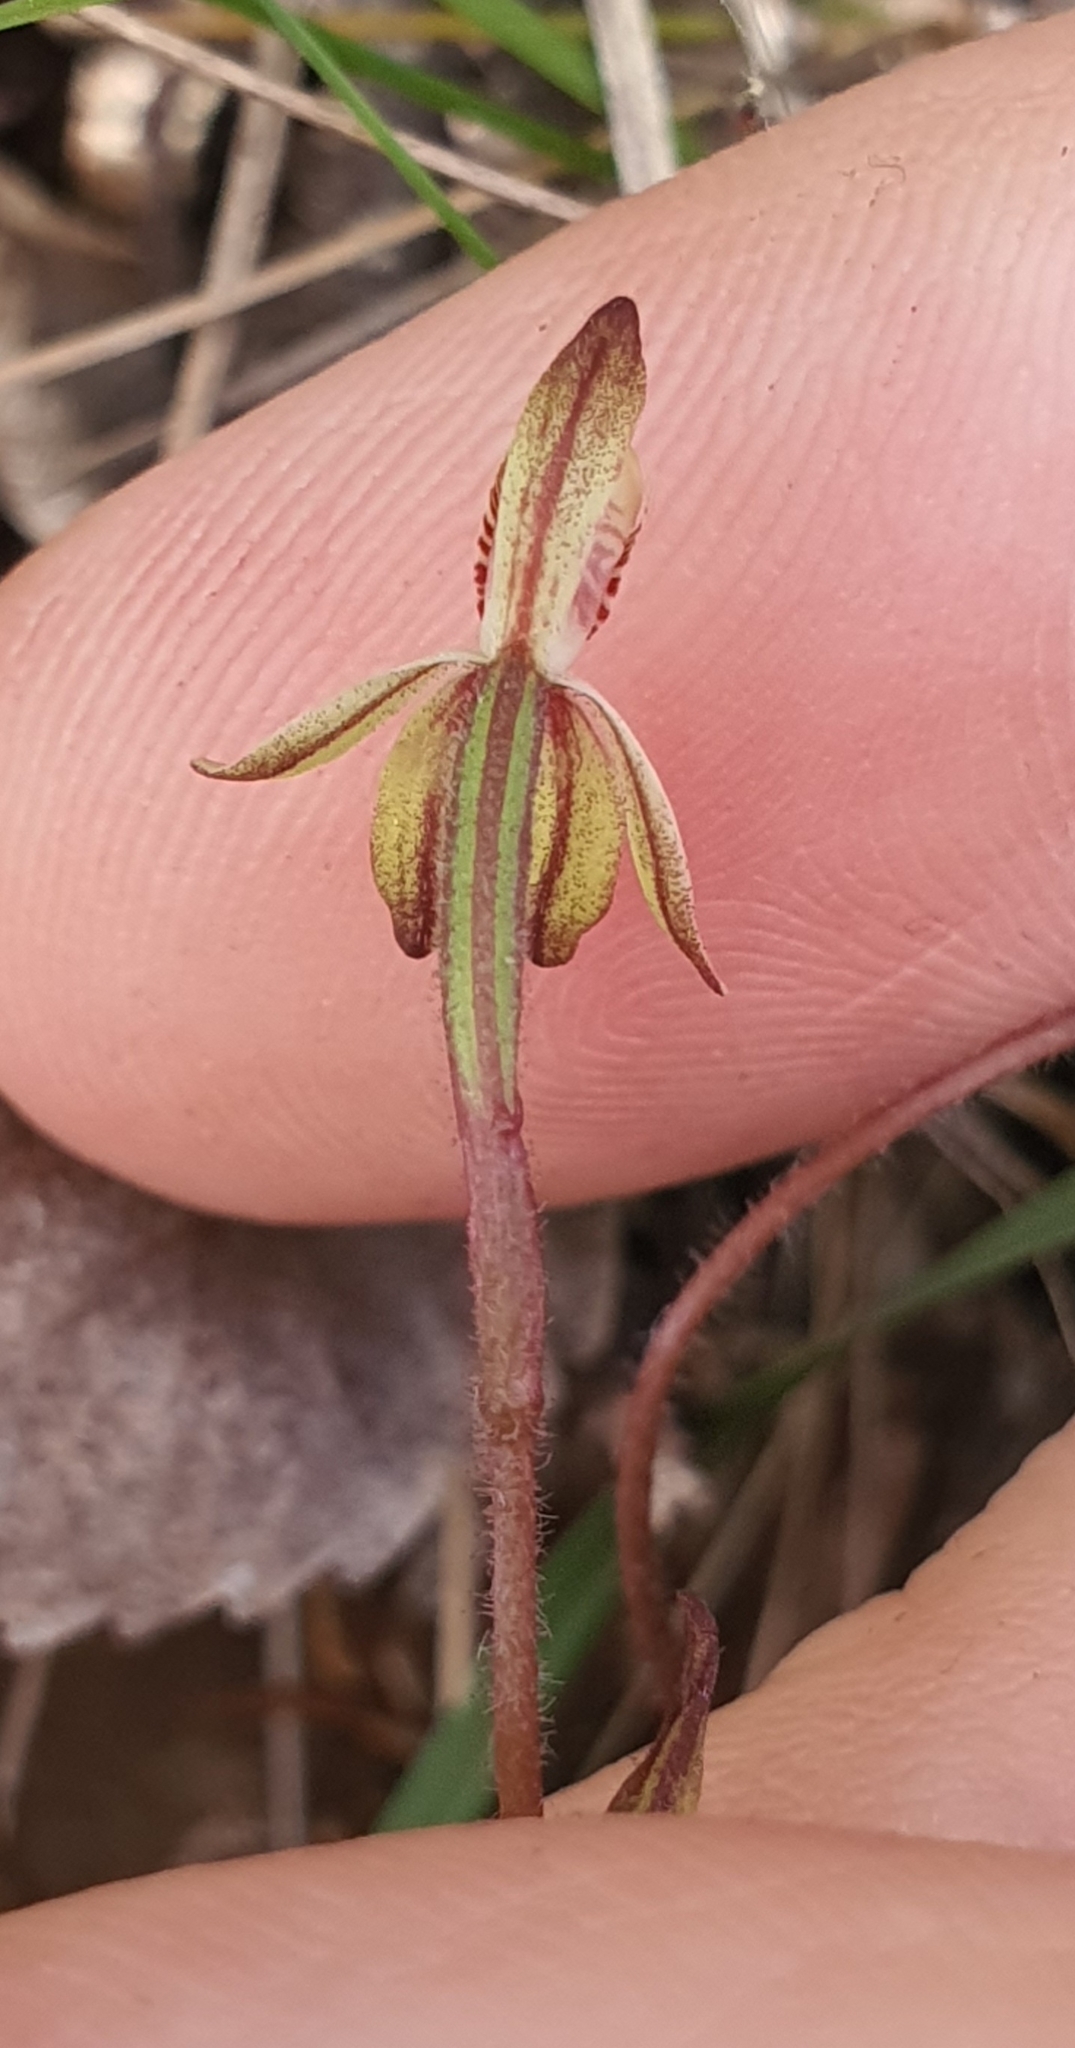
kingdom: Plantae
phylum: Tracheophyta
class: Liliopsida
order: Asparagales
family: Orchidaceae
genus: Caladenia
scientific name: Caladenia chlorostyla
